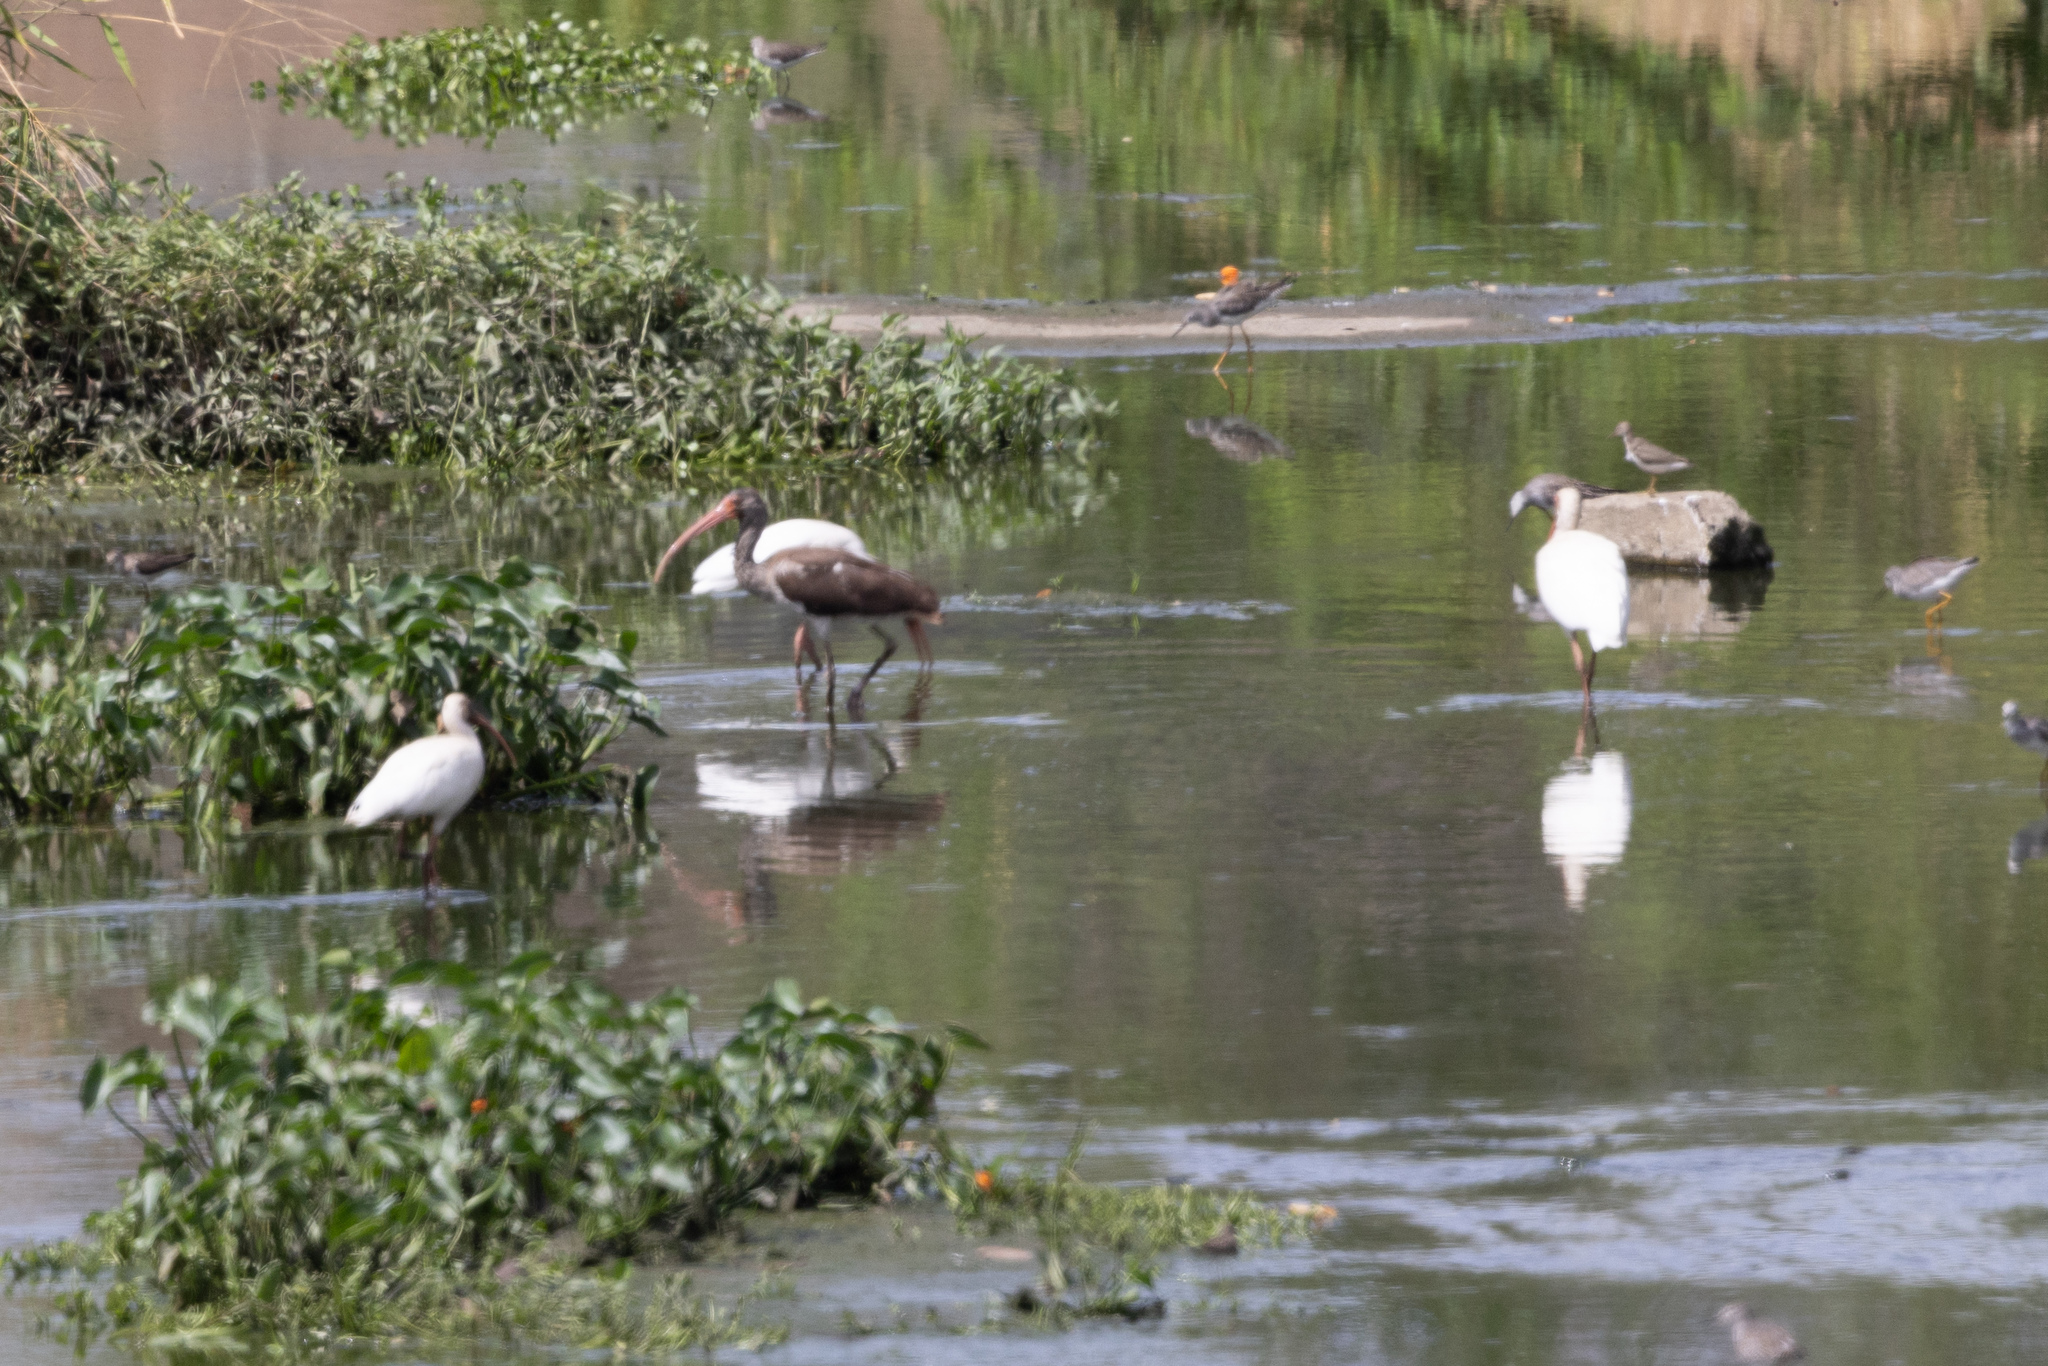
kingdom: Animalia
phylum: Chordata
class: Aves
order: Pelecaniformes
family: Threskiornithidae
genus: Eudocimus
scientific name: Eudocimus albus
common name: White ibis
